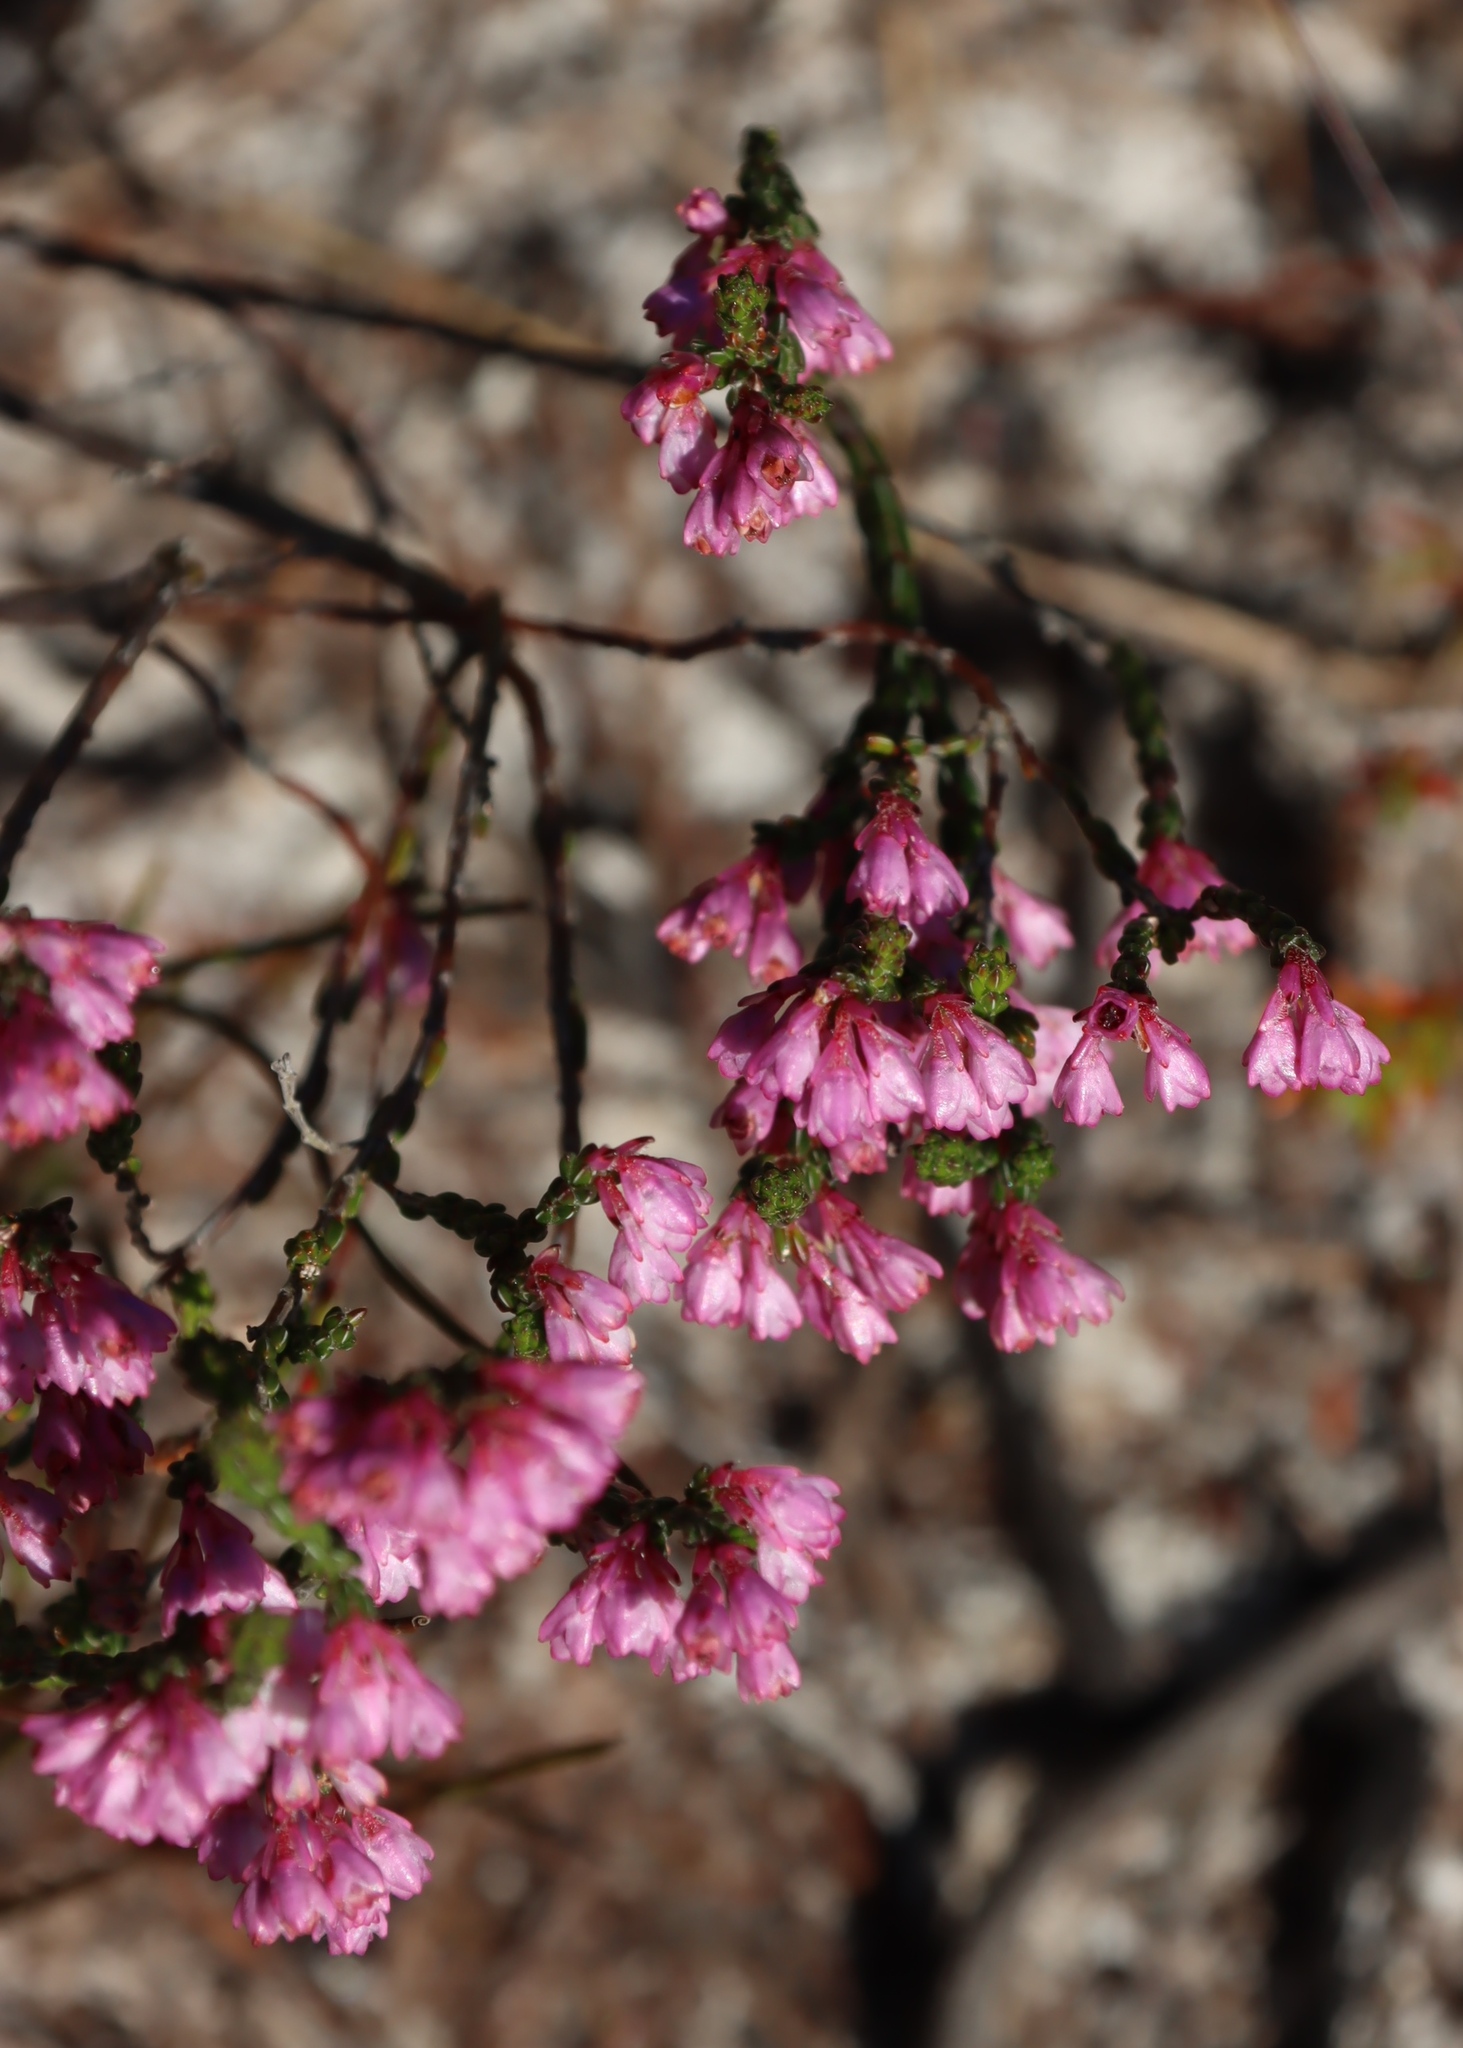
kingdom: Plantae
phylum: Tracheophyta
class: Magnoliopsida
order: Ericales
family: Ericaceae
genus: Erica
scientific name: Erica gnaphaloides
